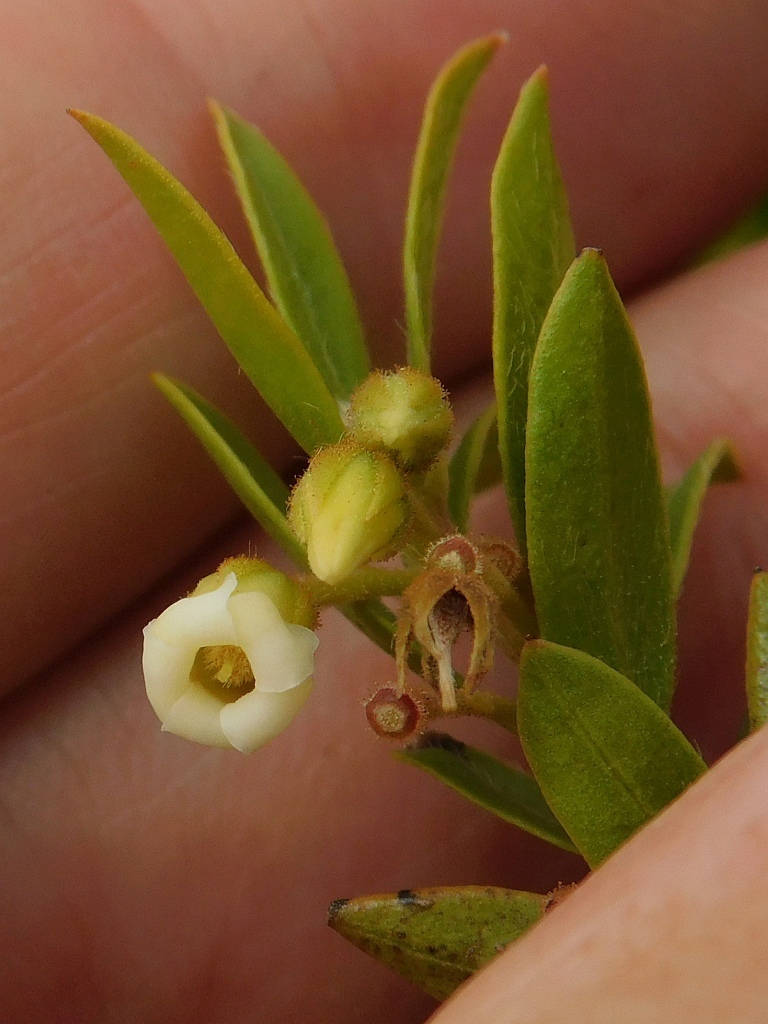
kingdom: Plantae
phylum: Tracheophyta
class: Magnoliopsida
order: Ericales
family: Ebenaceae
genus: Diospyros
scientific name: Diospyros glabra
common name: Fynbos star apple
